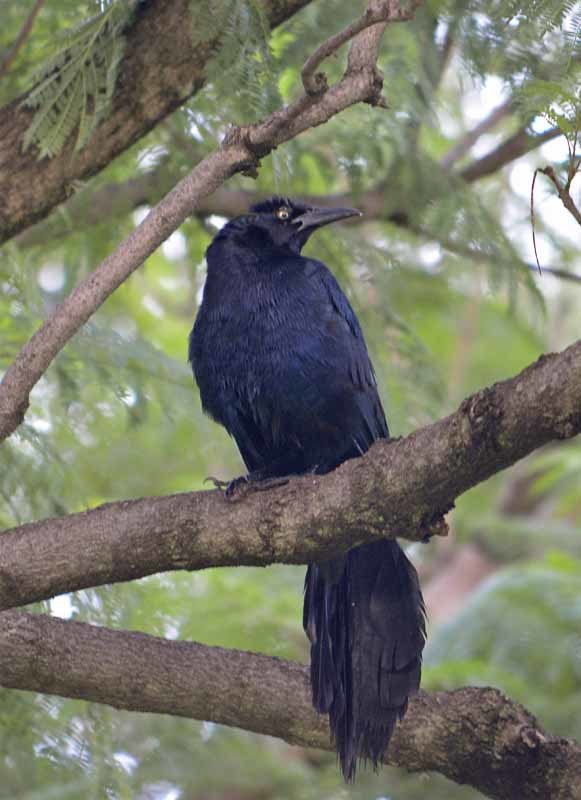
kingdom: Animalia
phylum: Chordata
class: Aves
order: Passeriformes
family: Icteridae
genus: Quiscalus
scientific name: Quiscalus mexicanus
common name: Great-tailed grackle
